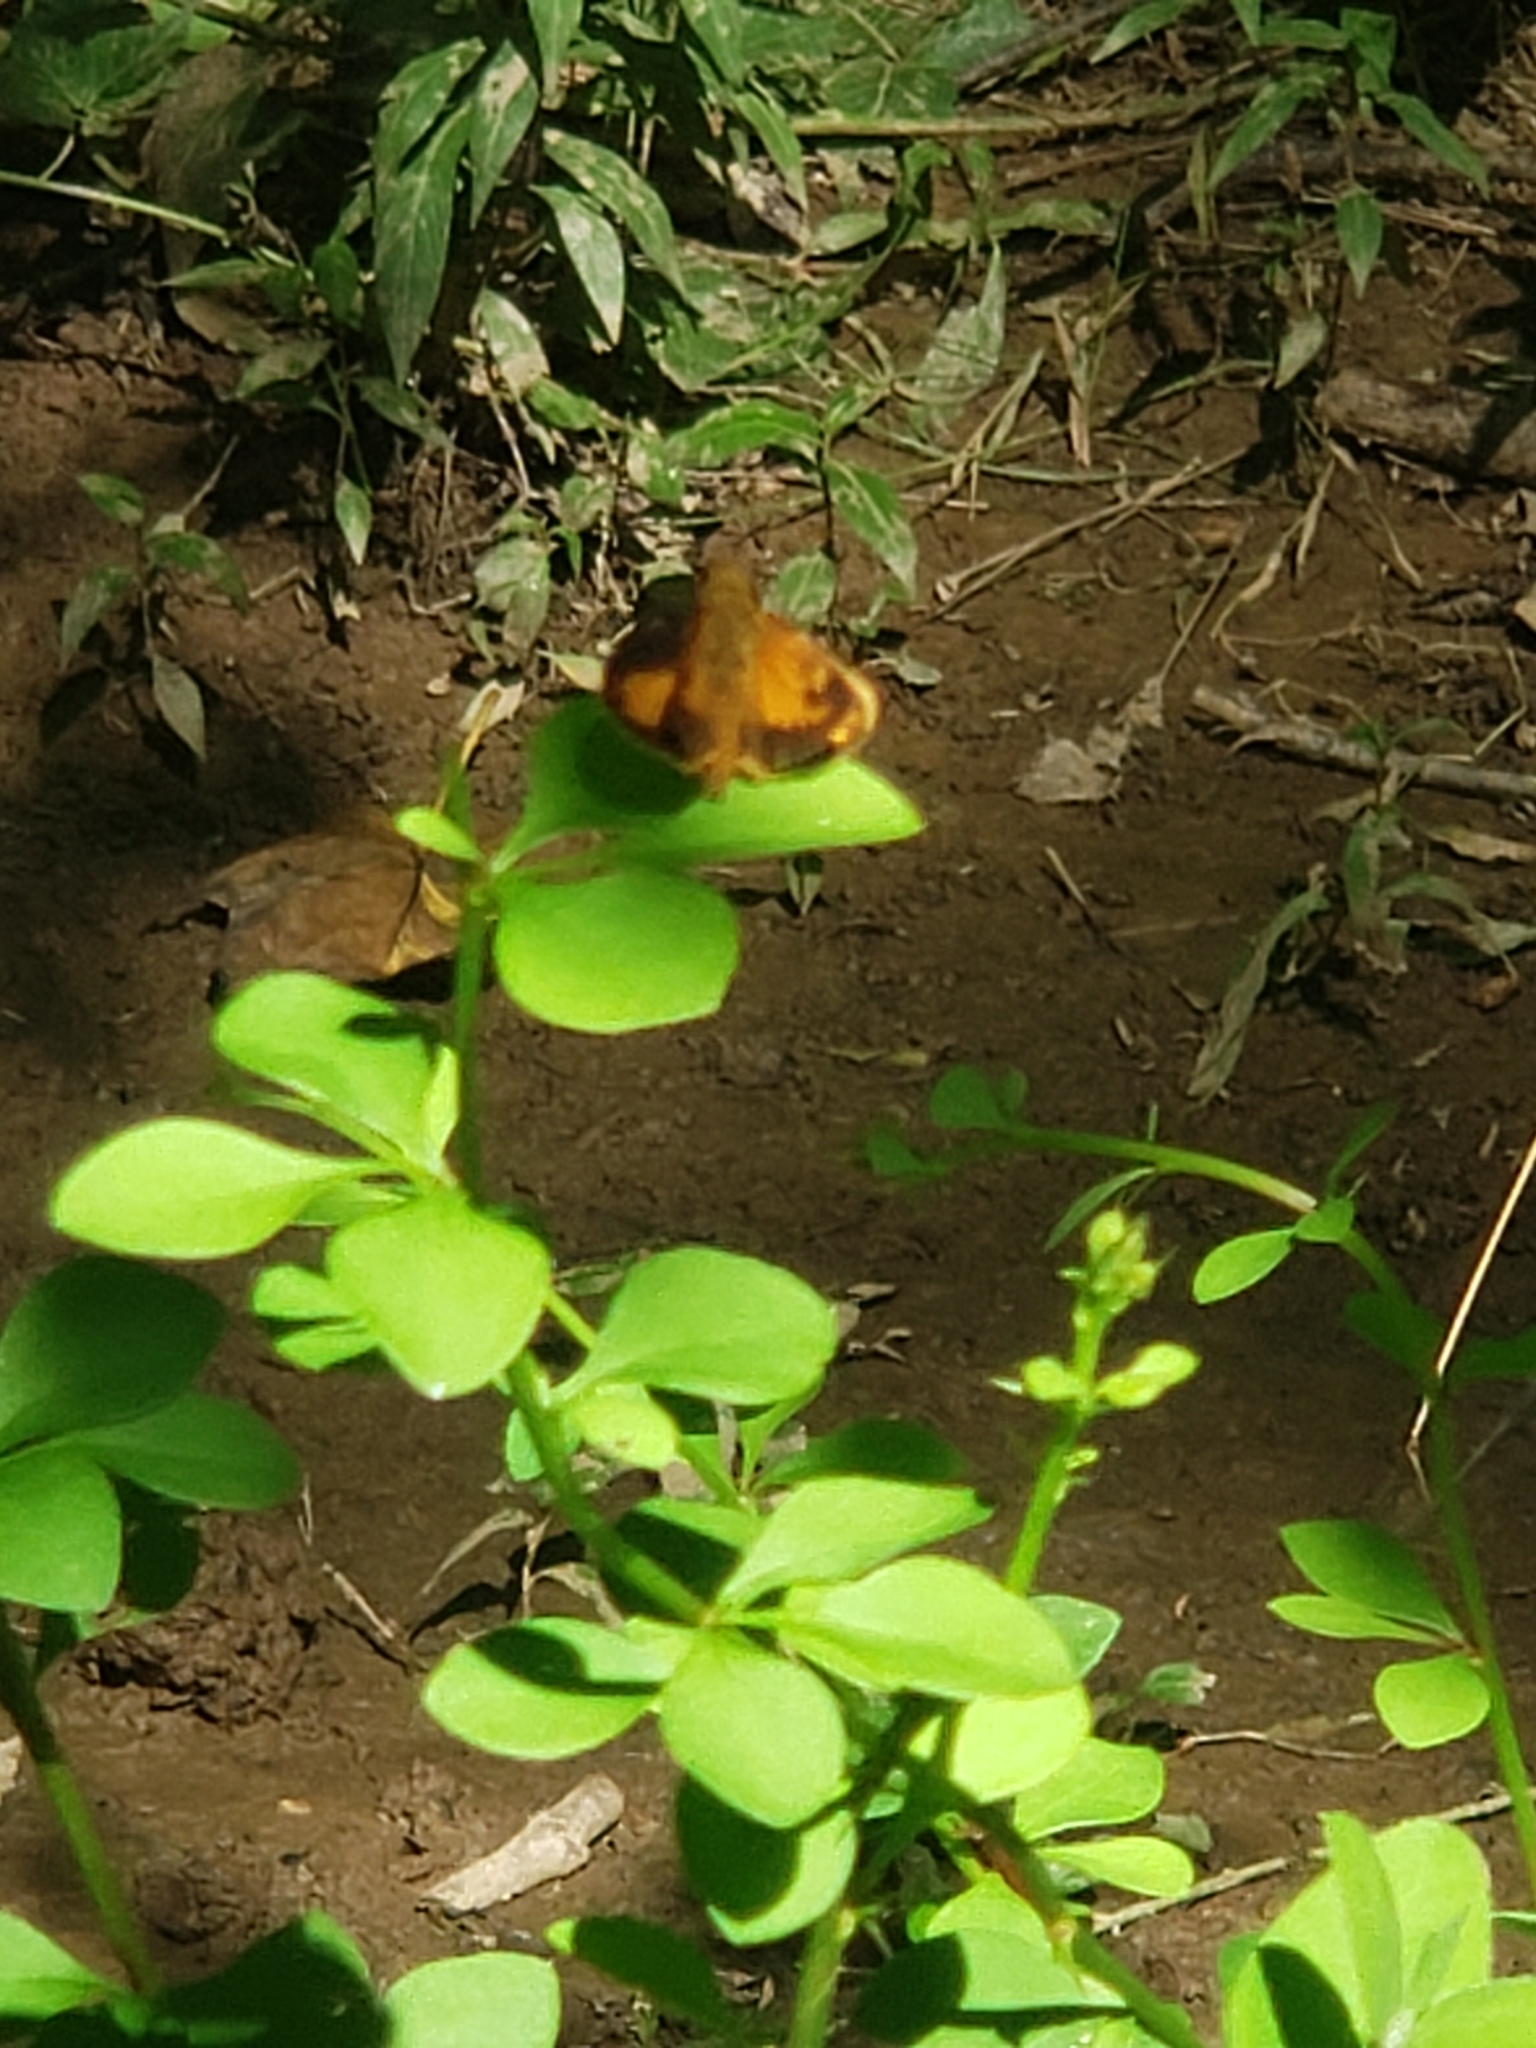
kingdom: Animalia
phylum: Arthropoda
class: Insecta
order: Lepidoptera
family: Hesperiidae
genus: Lon
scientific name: Lon zabulon
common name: Zabulon skipper
